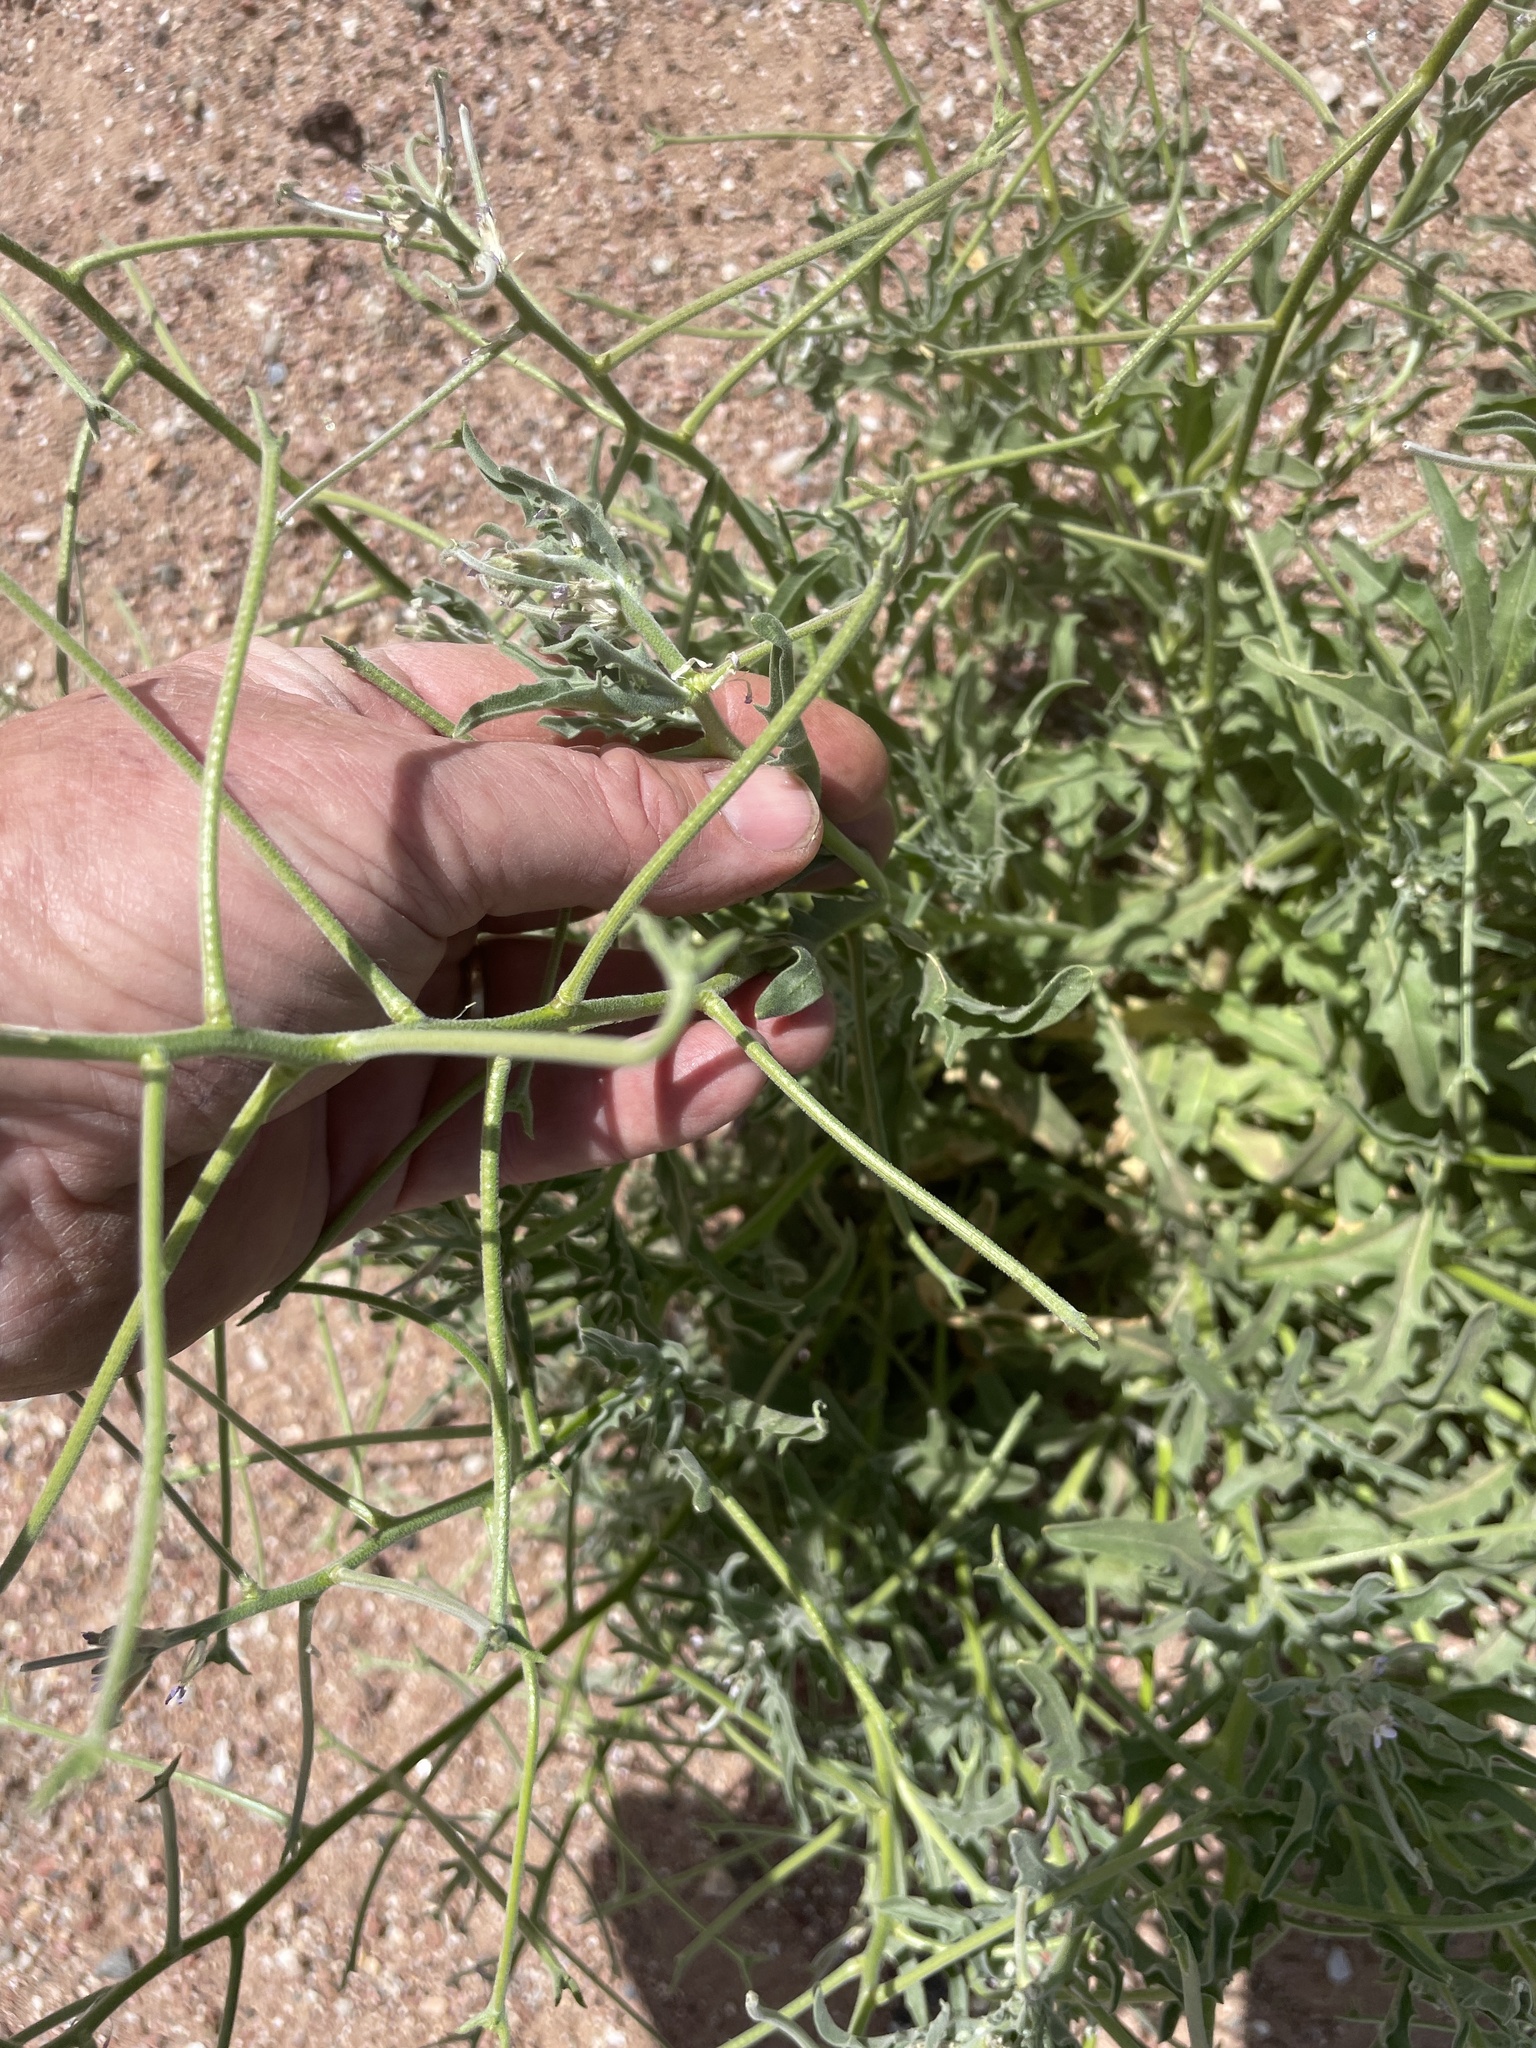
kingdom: Plantae
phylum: Tracheophyta
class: Magnoliopsida
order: Brassicales
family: Brassicaceae
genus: Matthiola
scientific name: Matthiola parviflora
